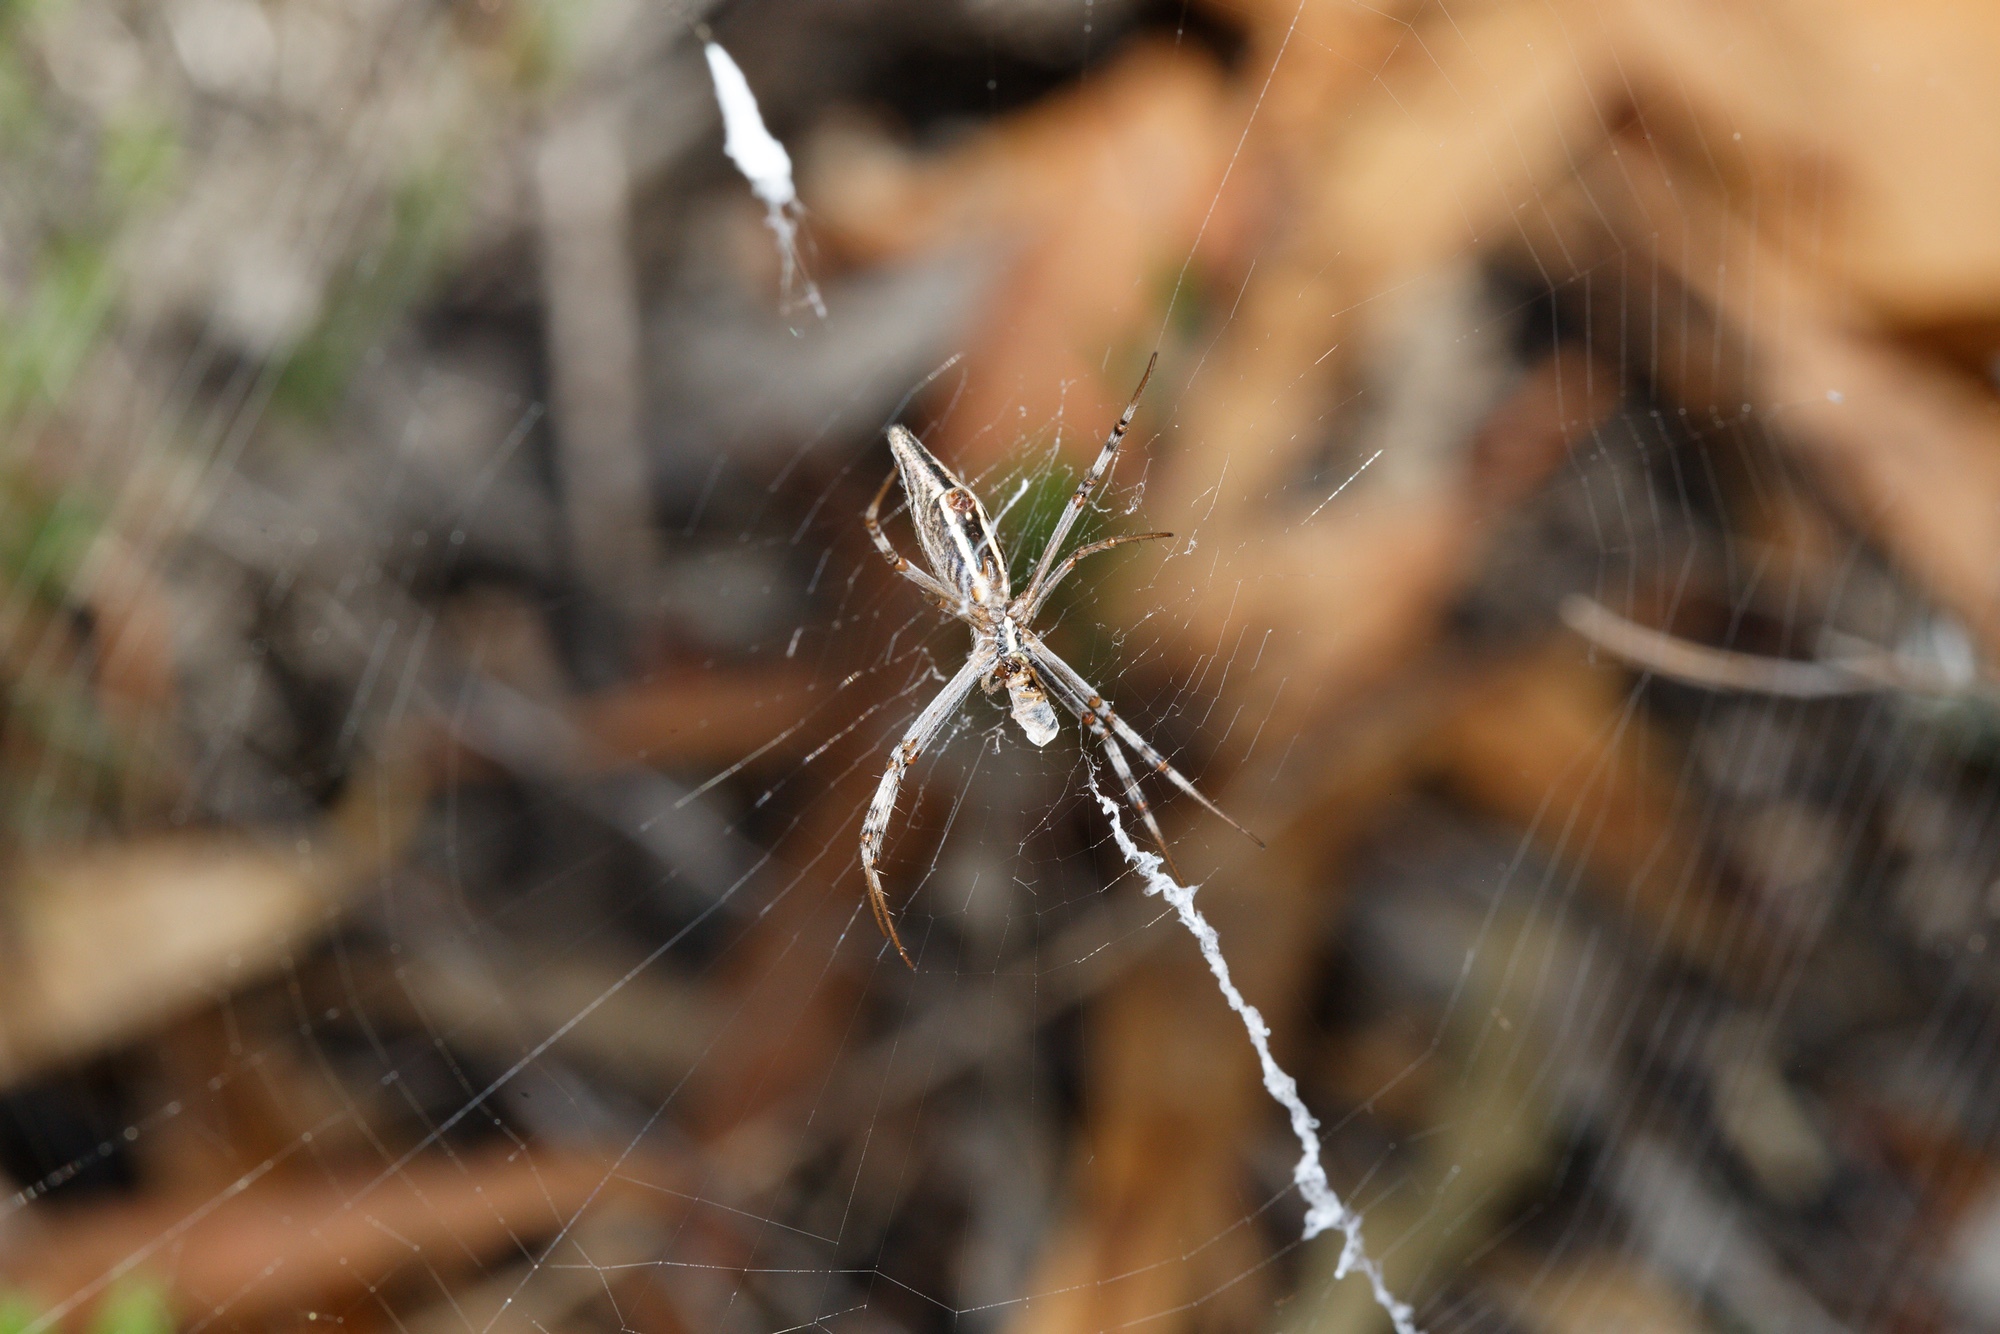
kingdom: Animalia
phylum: Arthropoda
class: Arachnida
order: Araneae
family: Araneidae
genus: Argiope
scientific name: Argiope protensa
